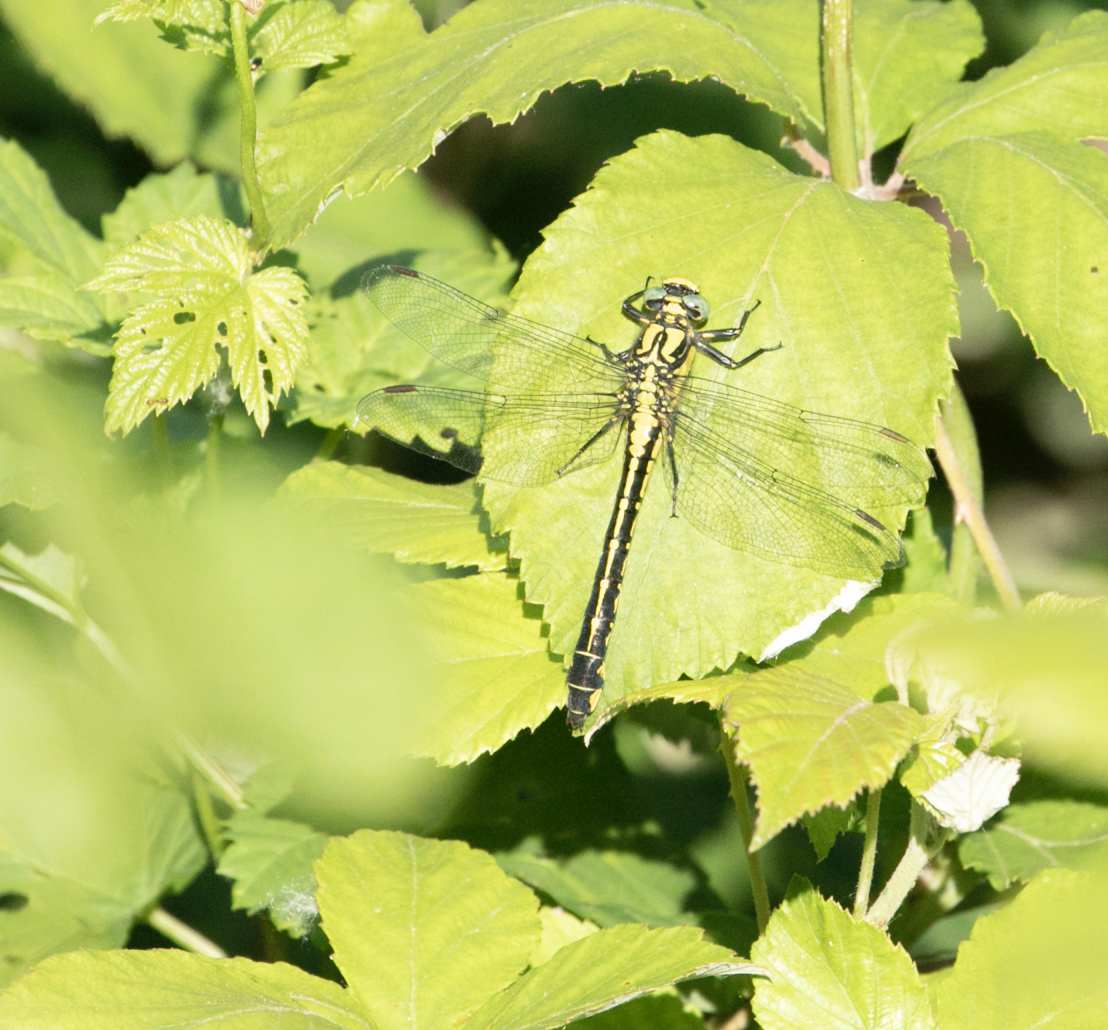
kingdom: Animalia
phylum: Arthropoda
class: Insecta
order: Odonata
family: Gomphidae
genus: Gomphus
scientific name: Gomphus vulgatissimus
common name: Club-tailed dragonfly
